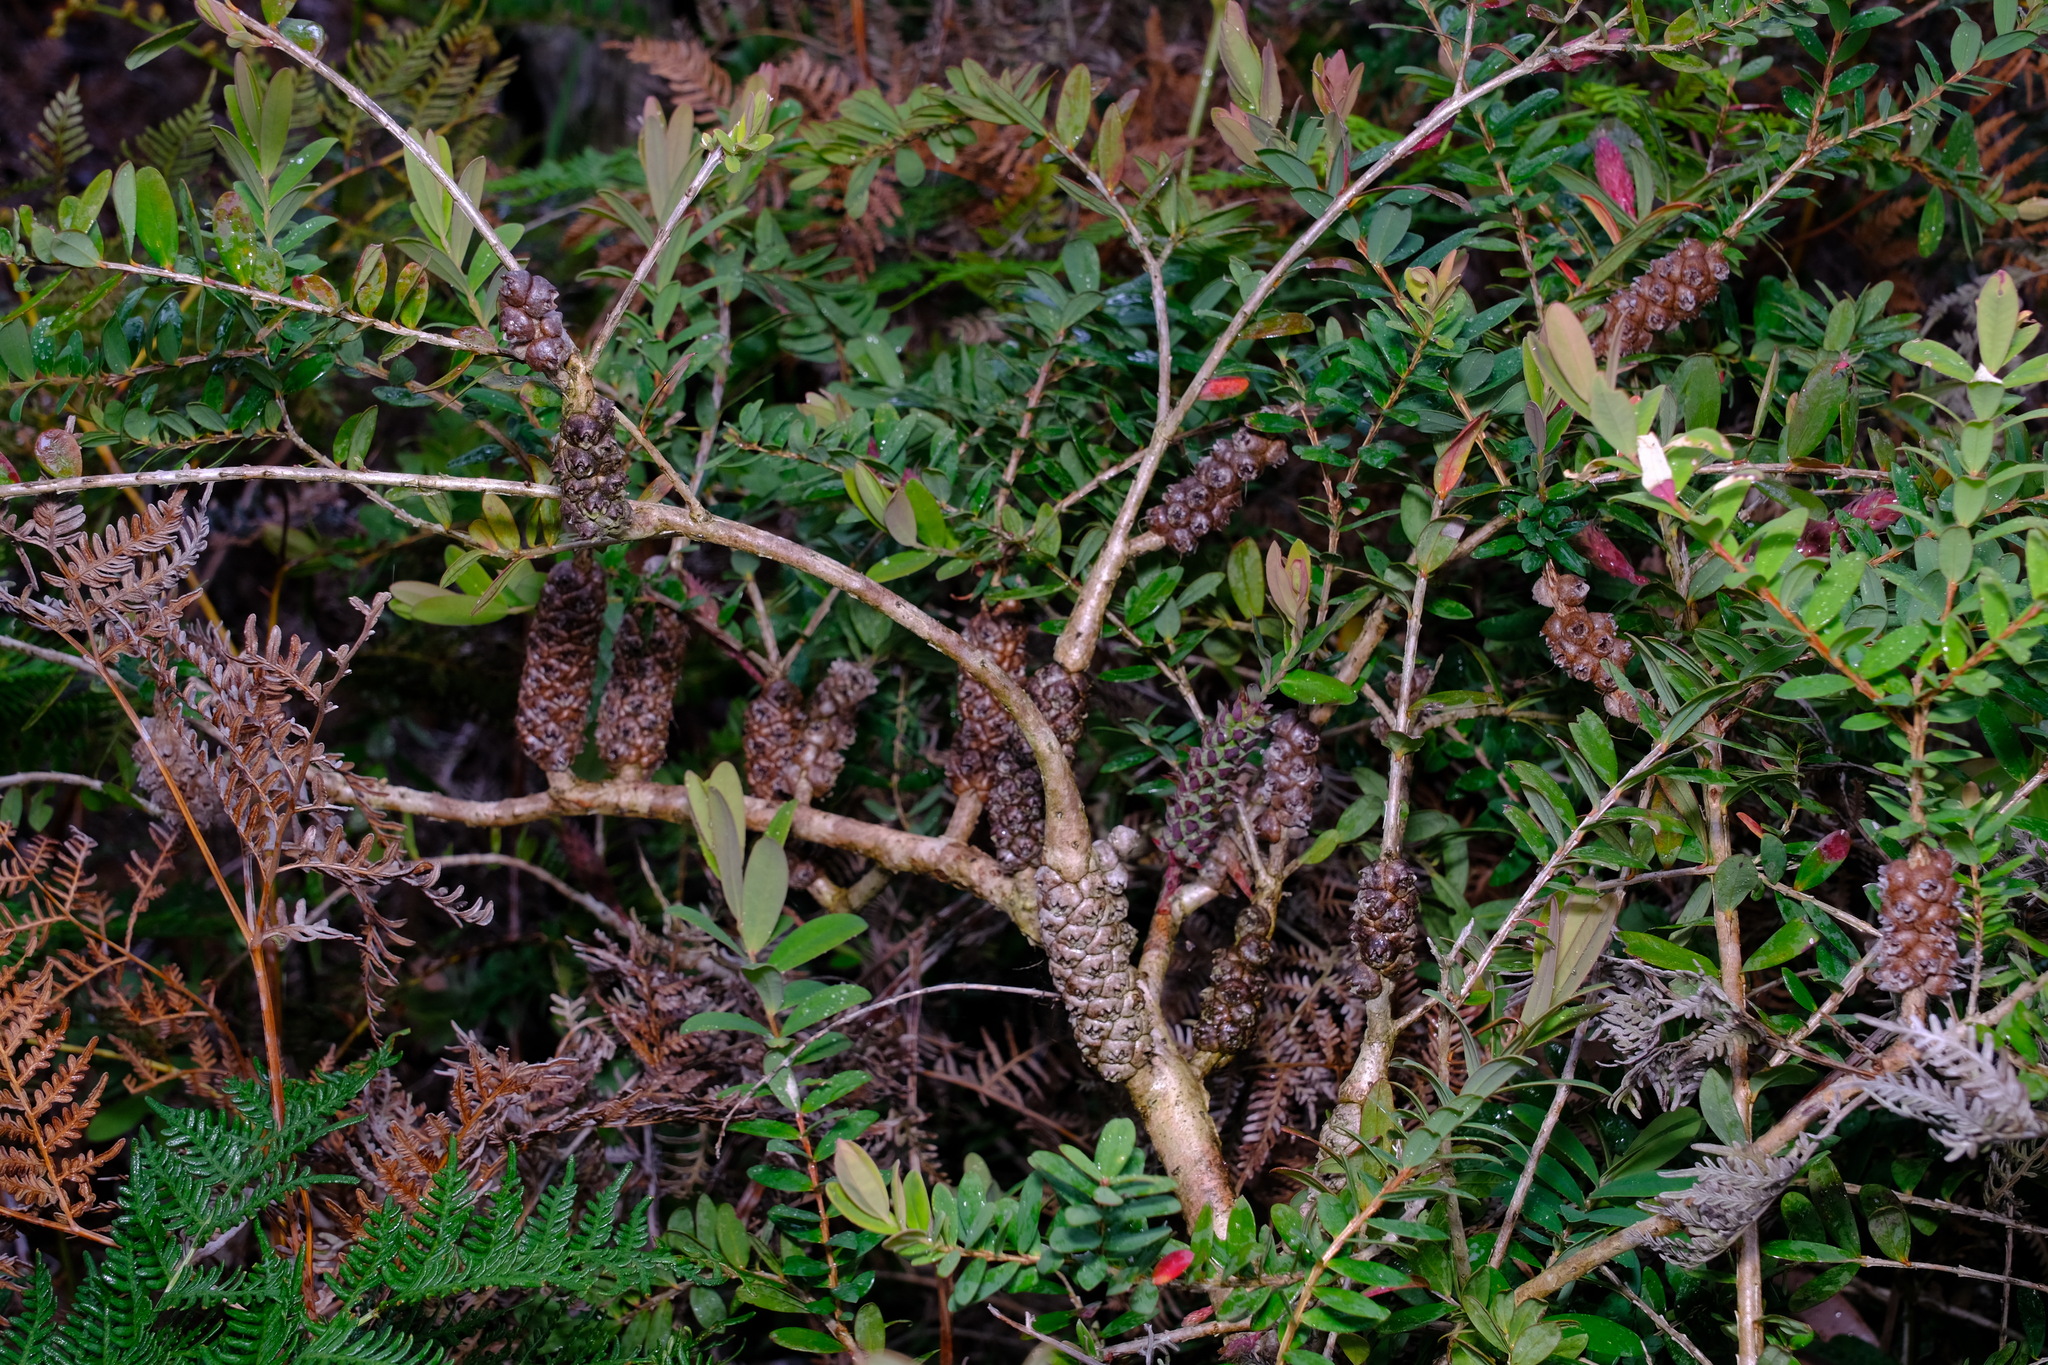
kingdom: Plantae
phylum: Tracheophyta
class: Magnoliopsida
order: Myrtales
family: Myrtaceae
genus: Melaleuca
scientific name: Melaleuca hypericifolia
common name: Red honey myrtle
